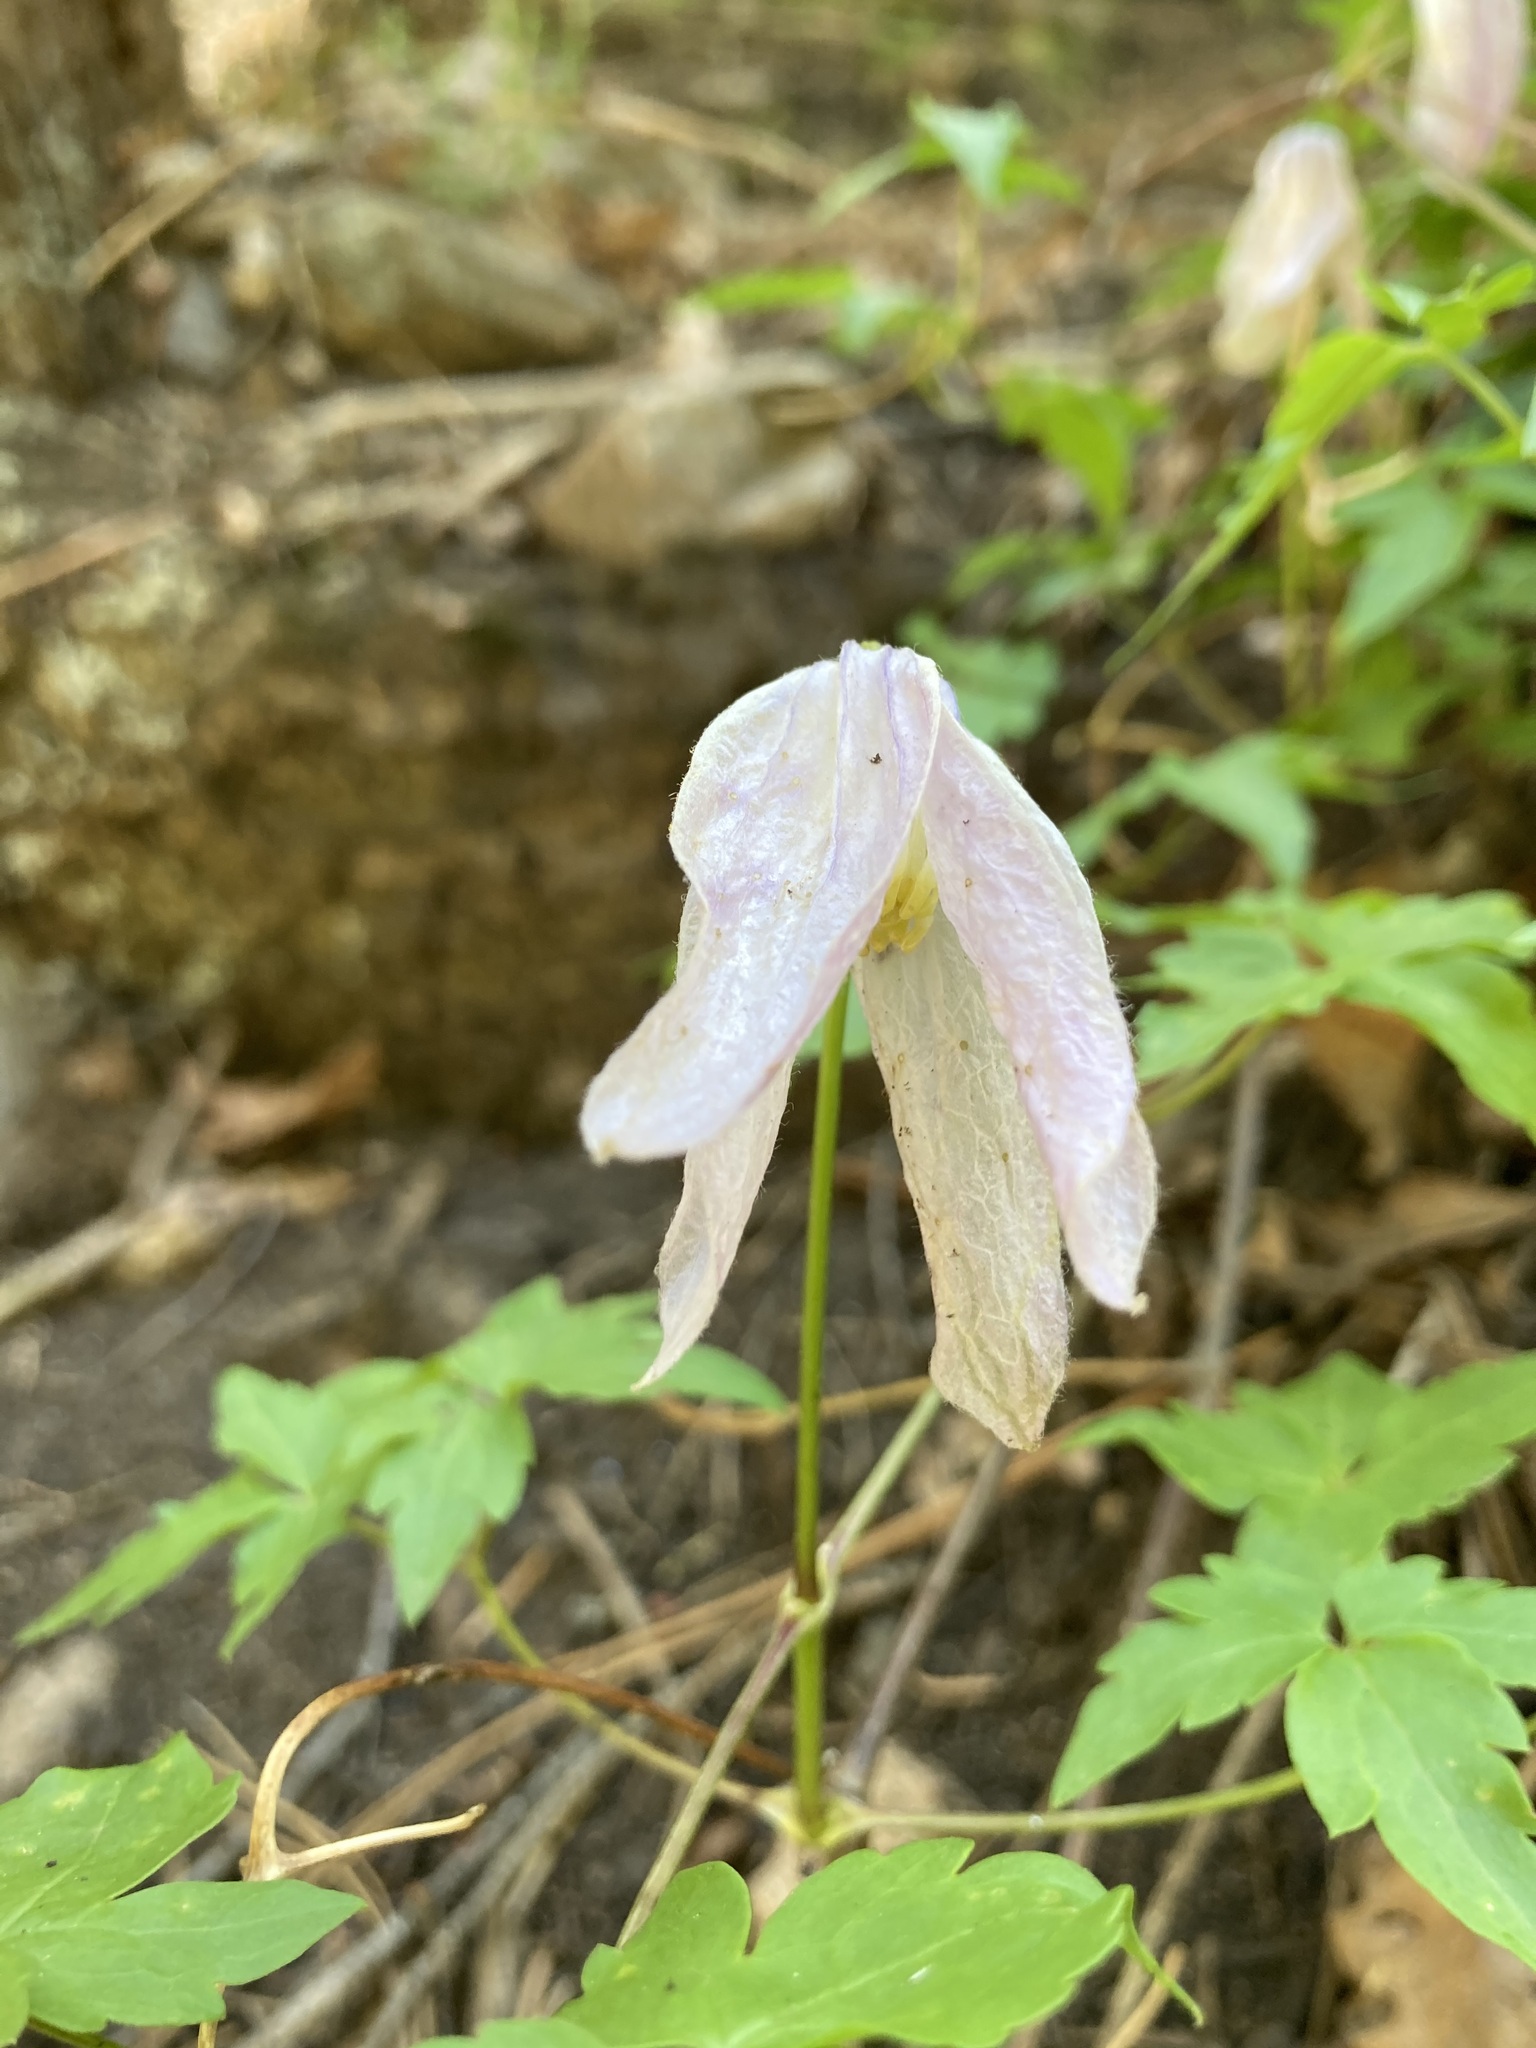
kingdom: Plantae
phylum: Tracheophyta
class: Magnoliopsida
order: Ranunculales
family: Ranunculaceae
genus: Clematis
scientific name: Clematis columbiana
